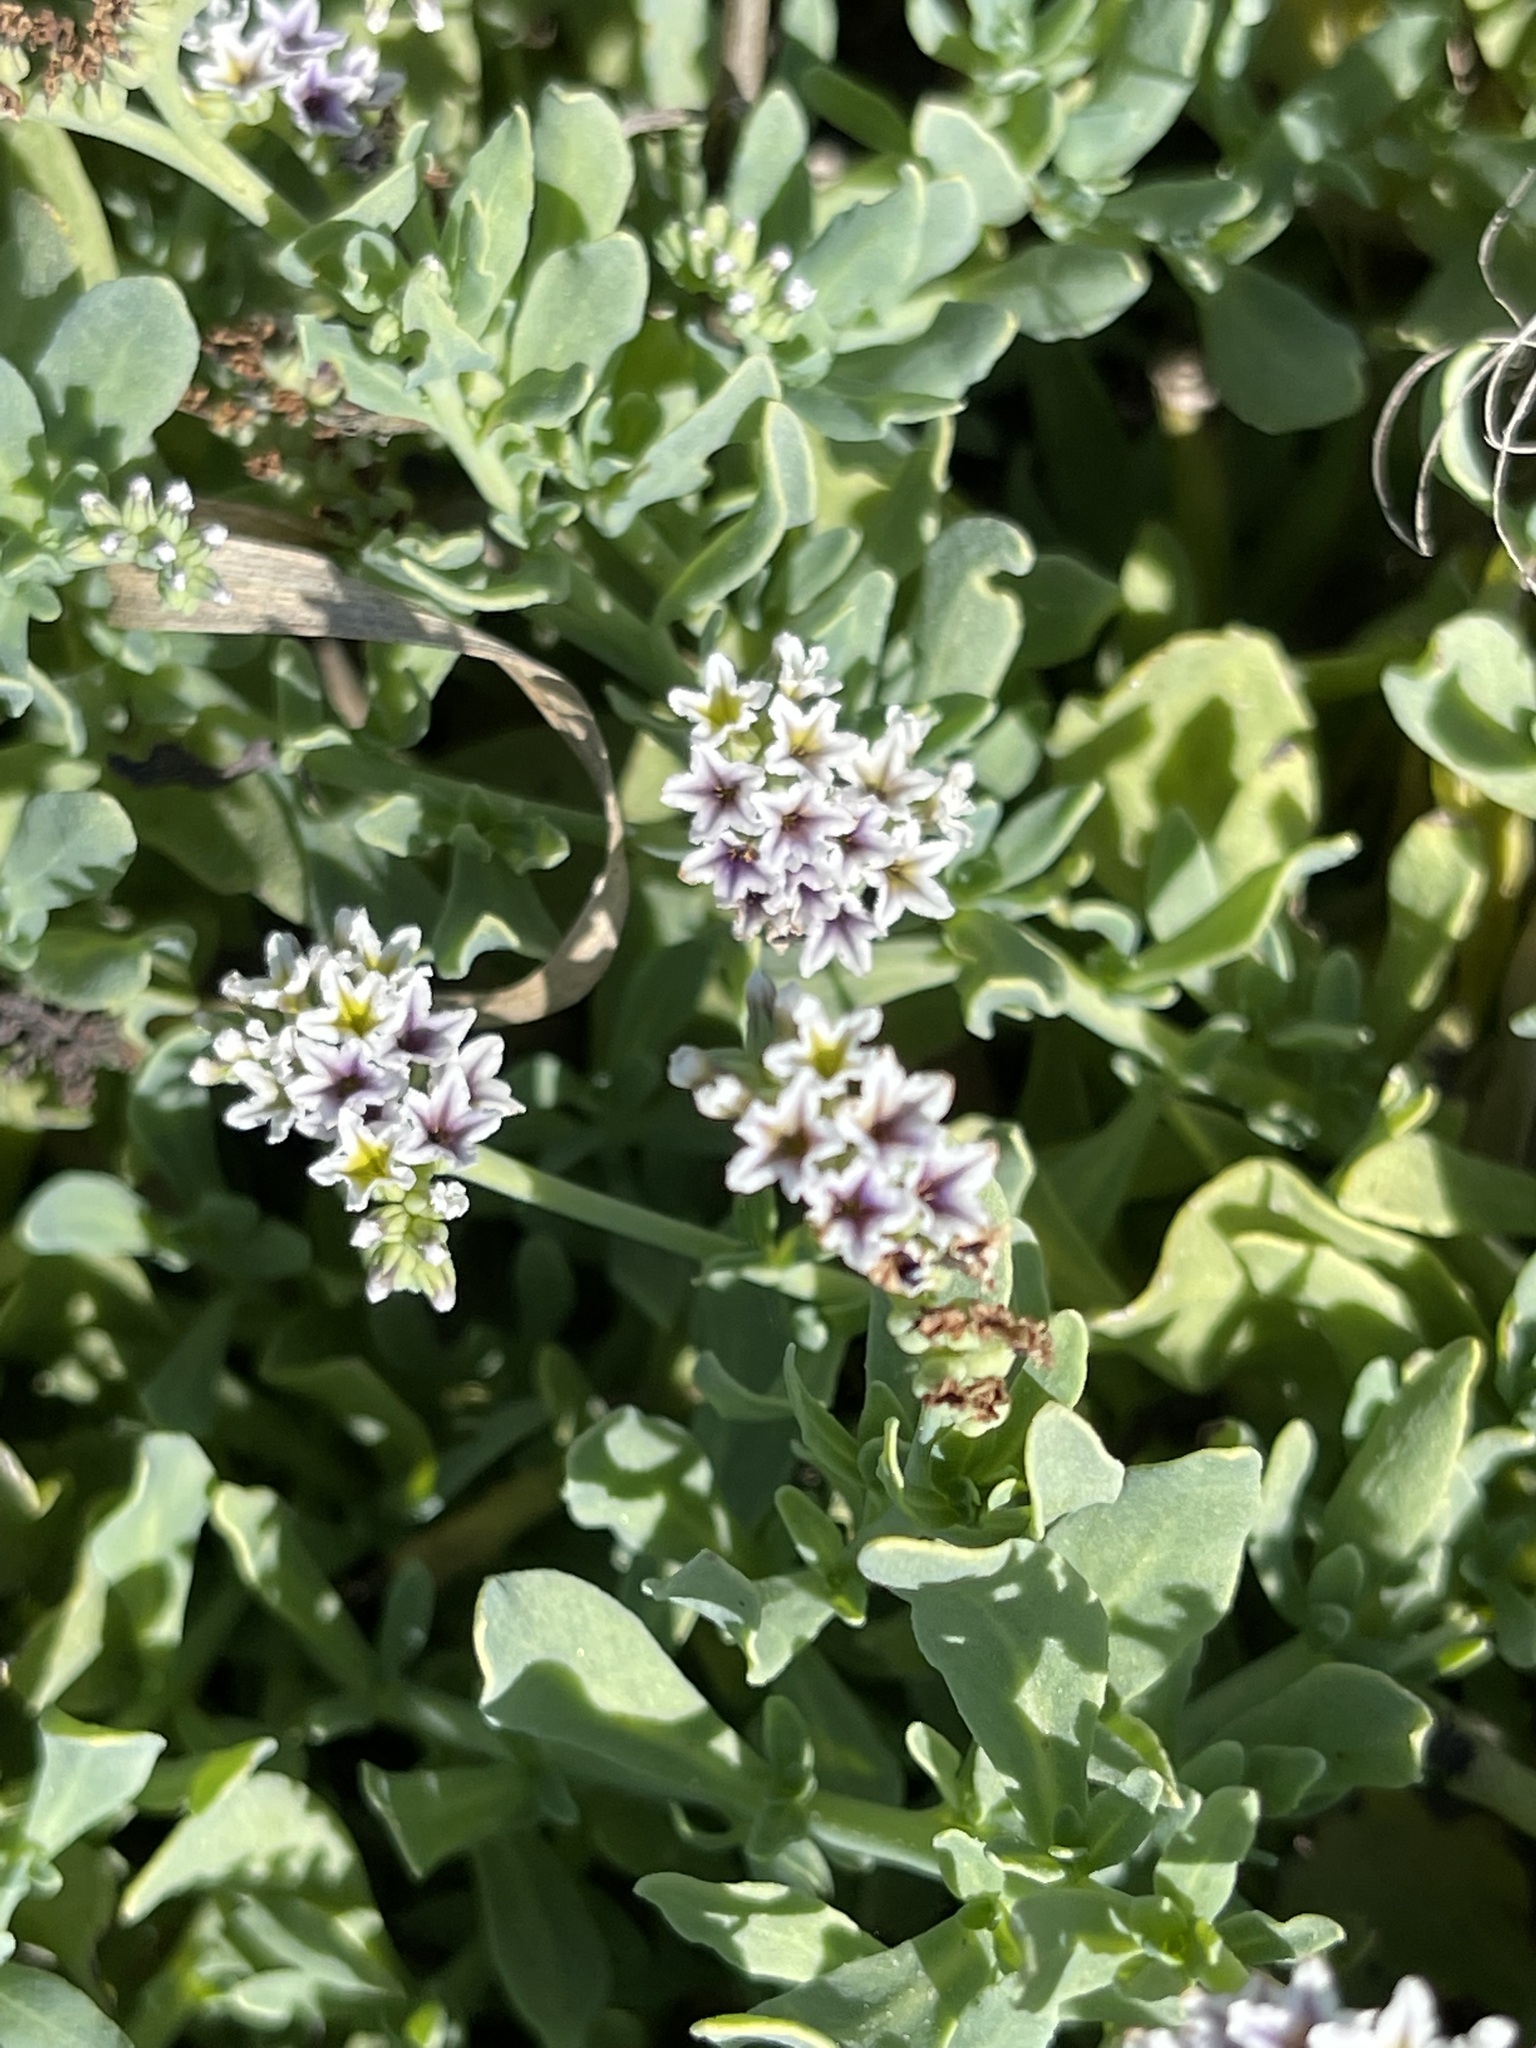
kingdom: Plantae
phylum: Tracheophyta
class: Magnoliopsida
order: Boraginales
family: Heliotropiaceae
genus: Heliotropium
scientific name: Heliotropium curassavicum
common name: Seaside heliotrope
